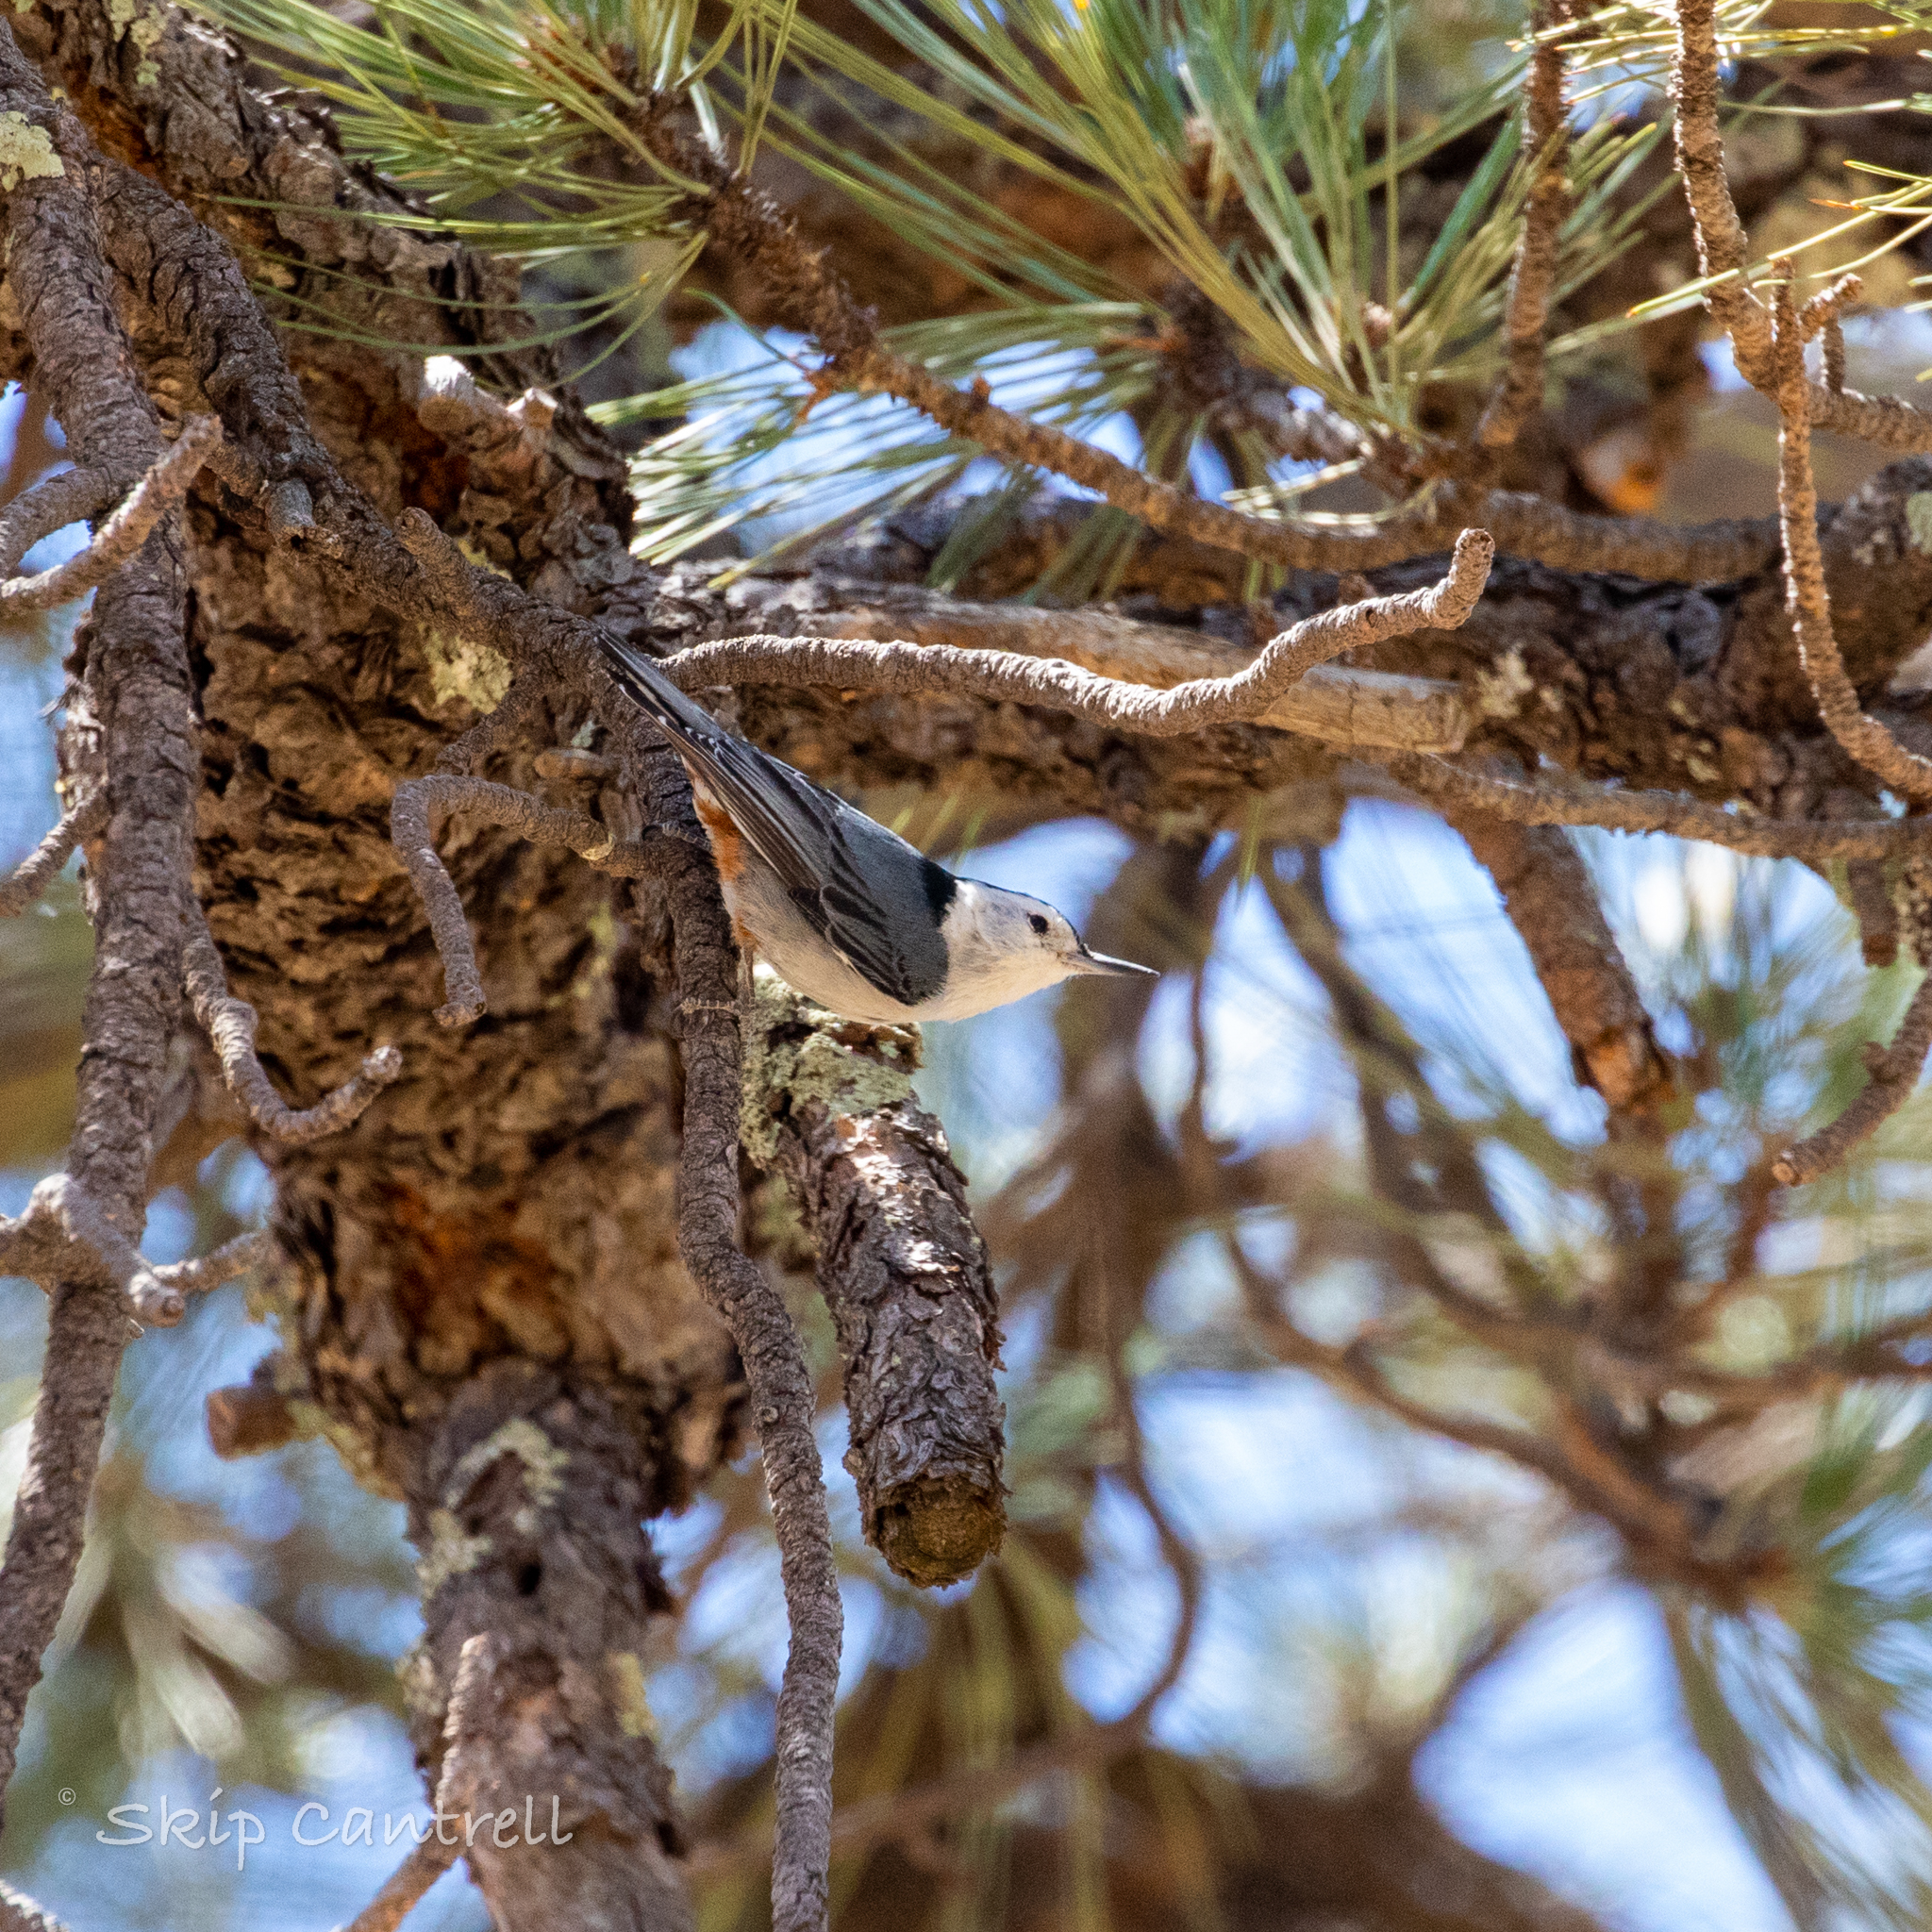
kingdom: Animalia
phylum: Chordata
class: Aves
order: Passeriformes
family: Sittidae
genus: Sitta
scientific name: Sitta carolinensis
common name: White-breasted nuthatch
